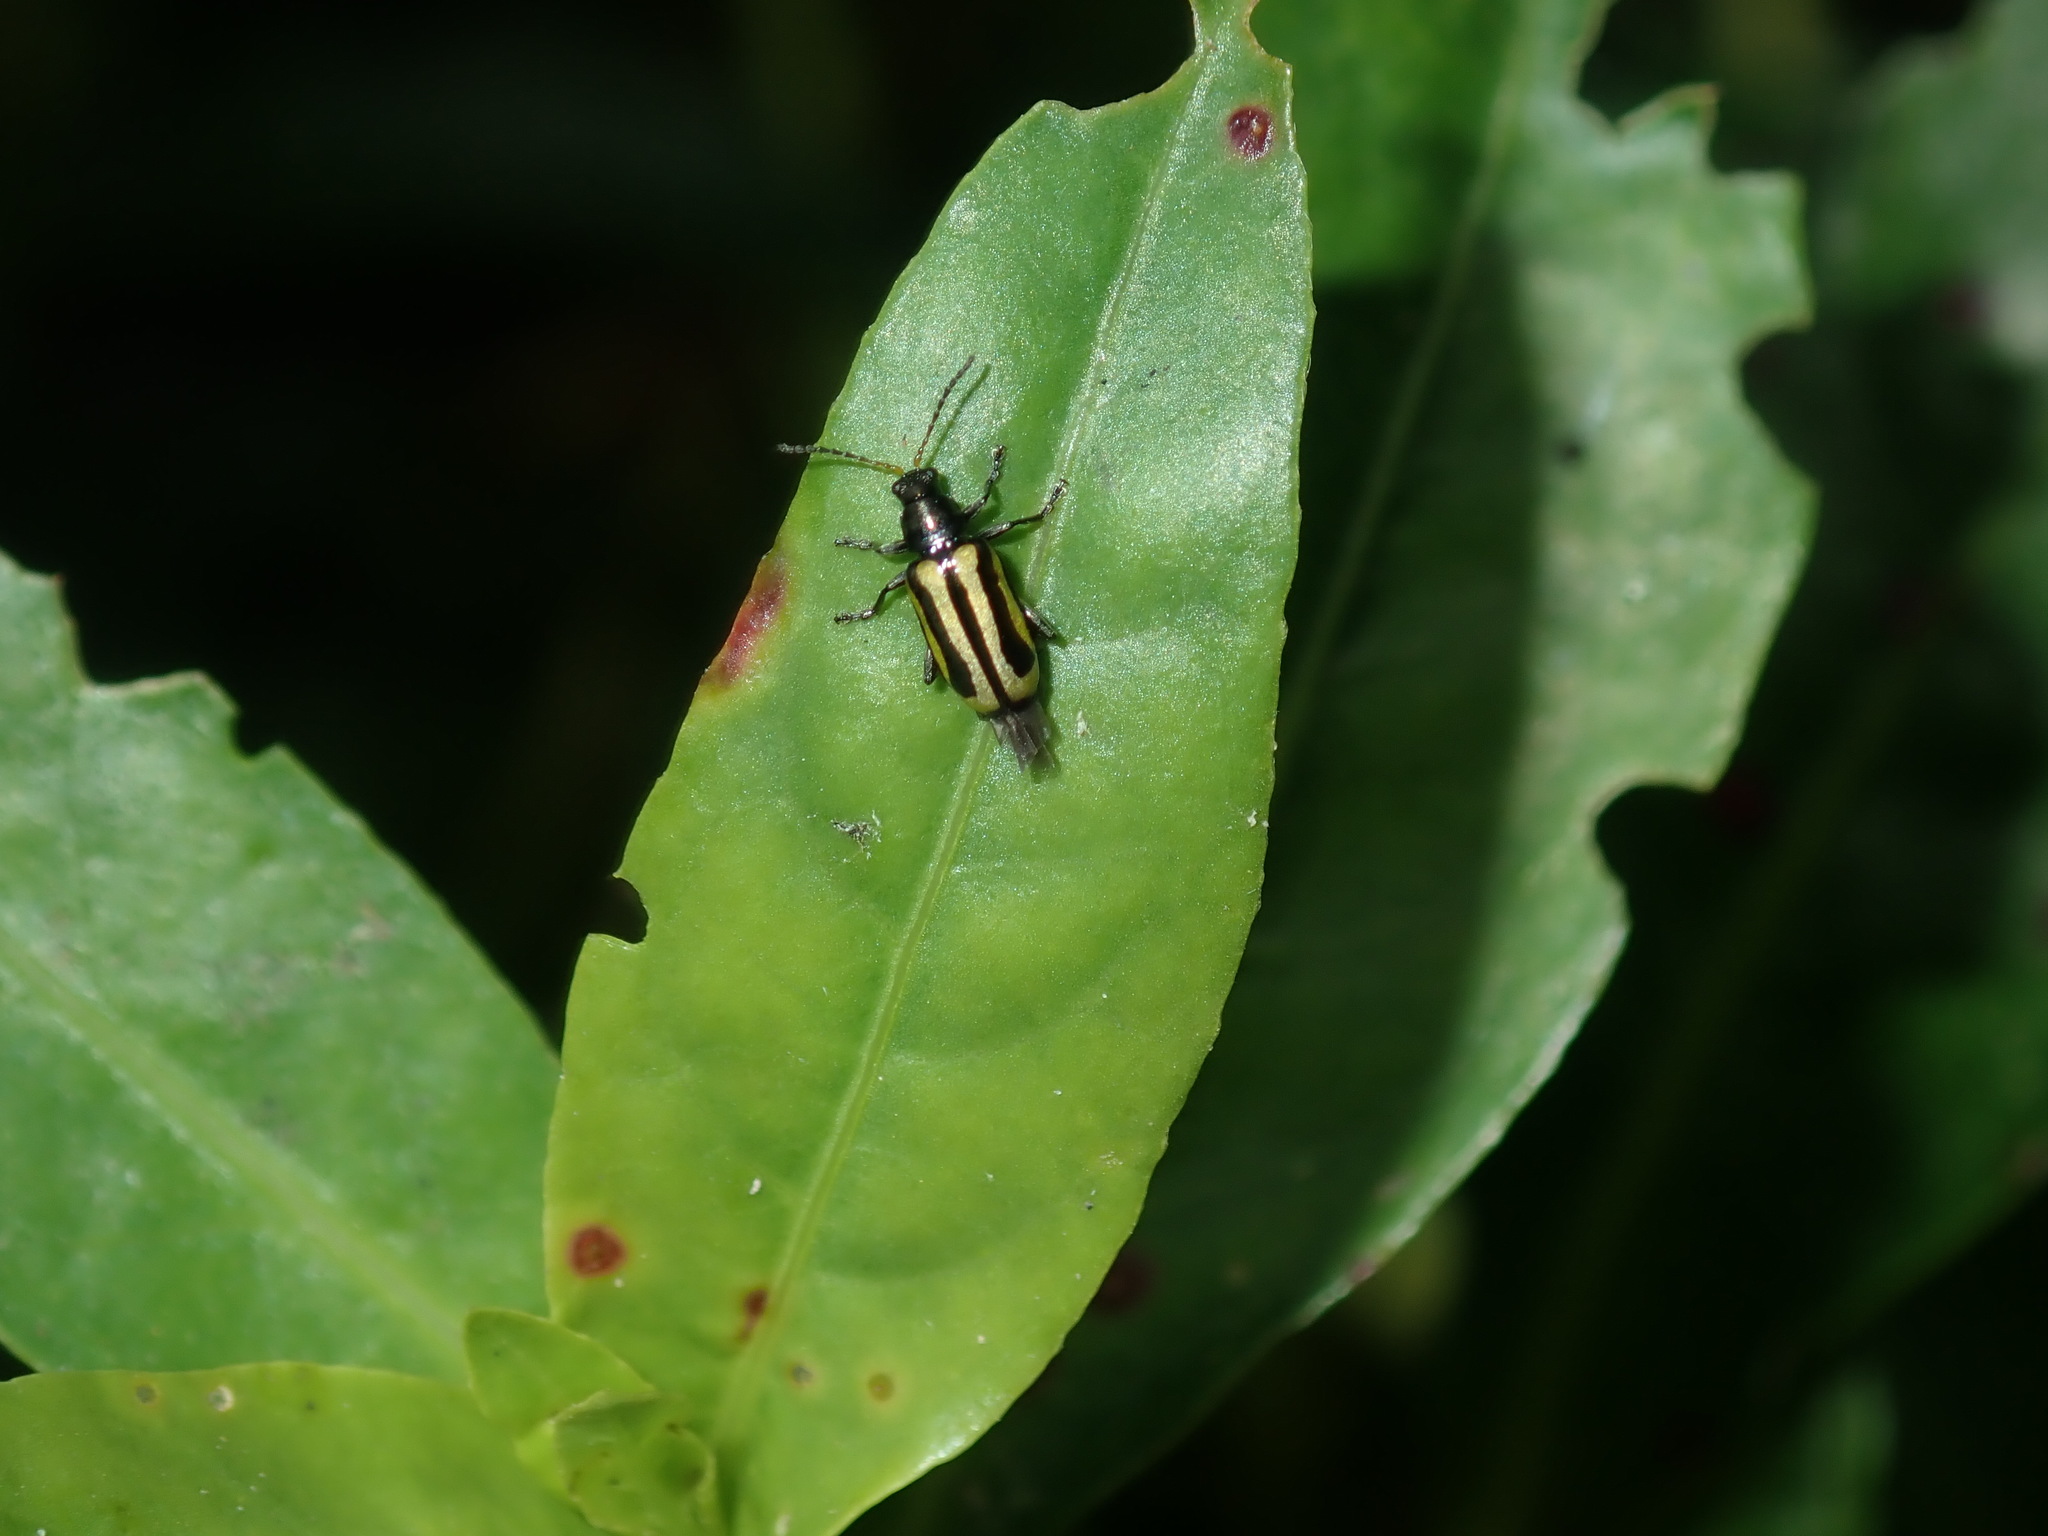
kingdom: Animalia
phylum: Arthropoda
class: Insecta
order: Coleoptera
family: Chrysomelidae
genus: Agasicles
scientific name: Agasicles hygrophila
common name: Alligatorweed flea beetle
